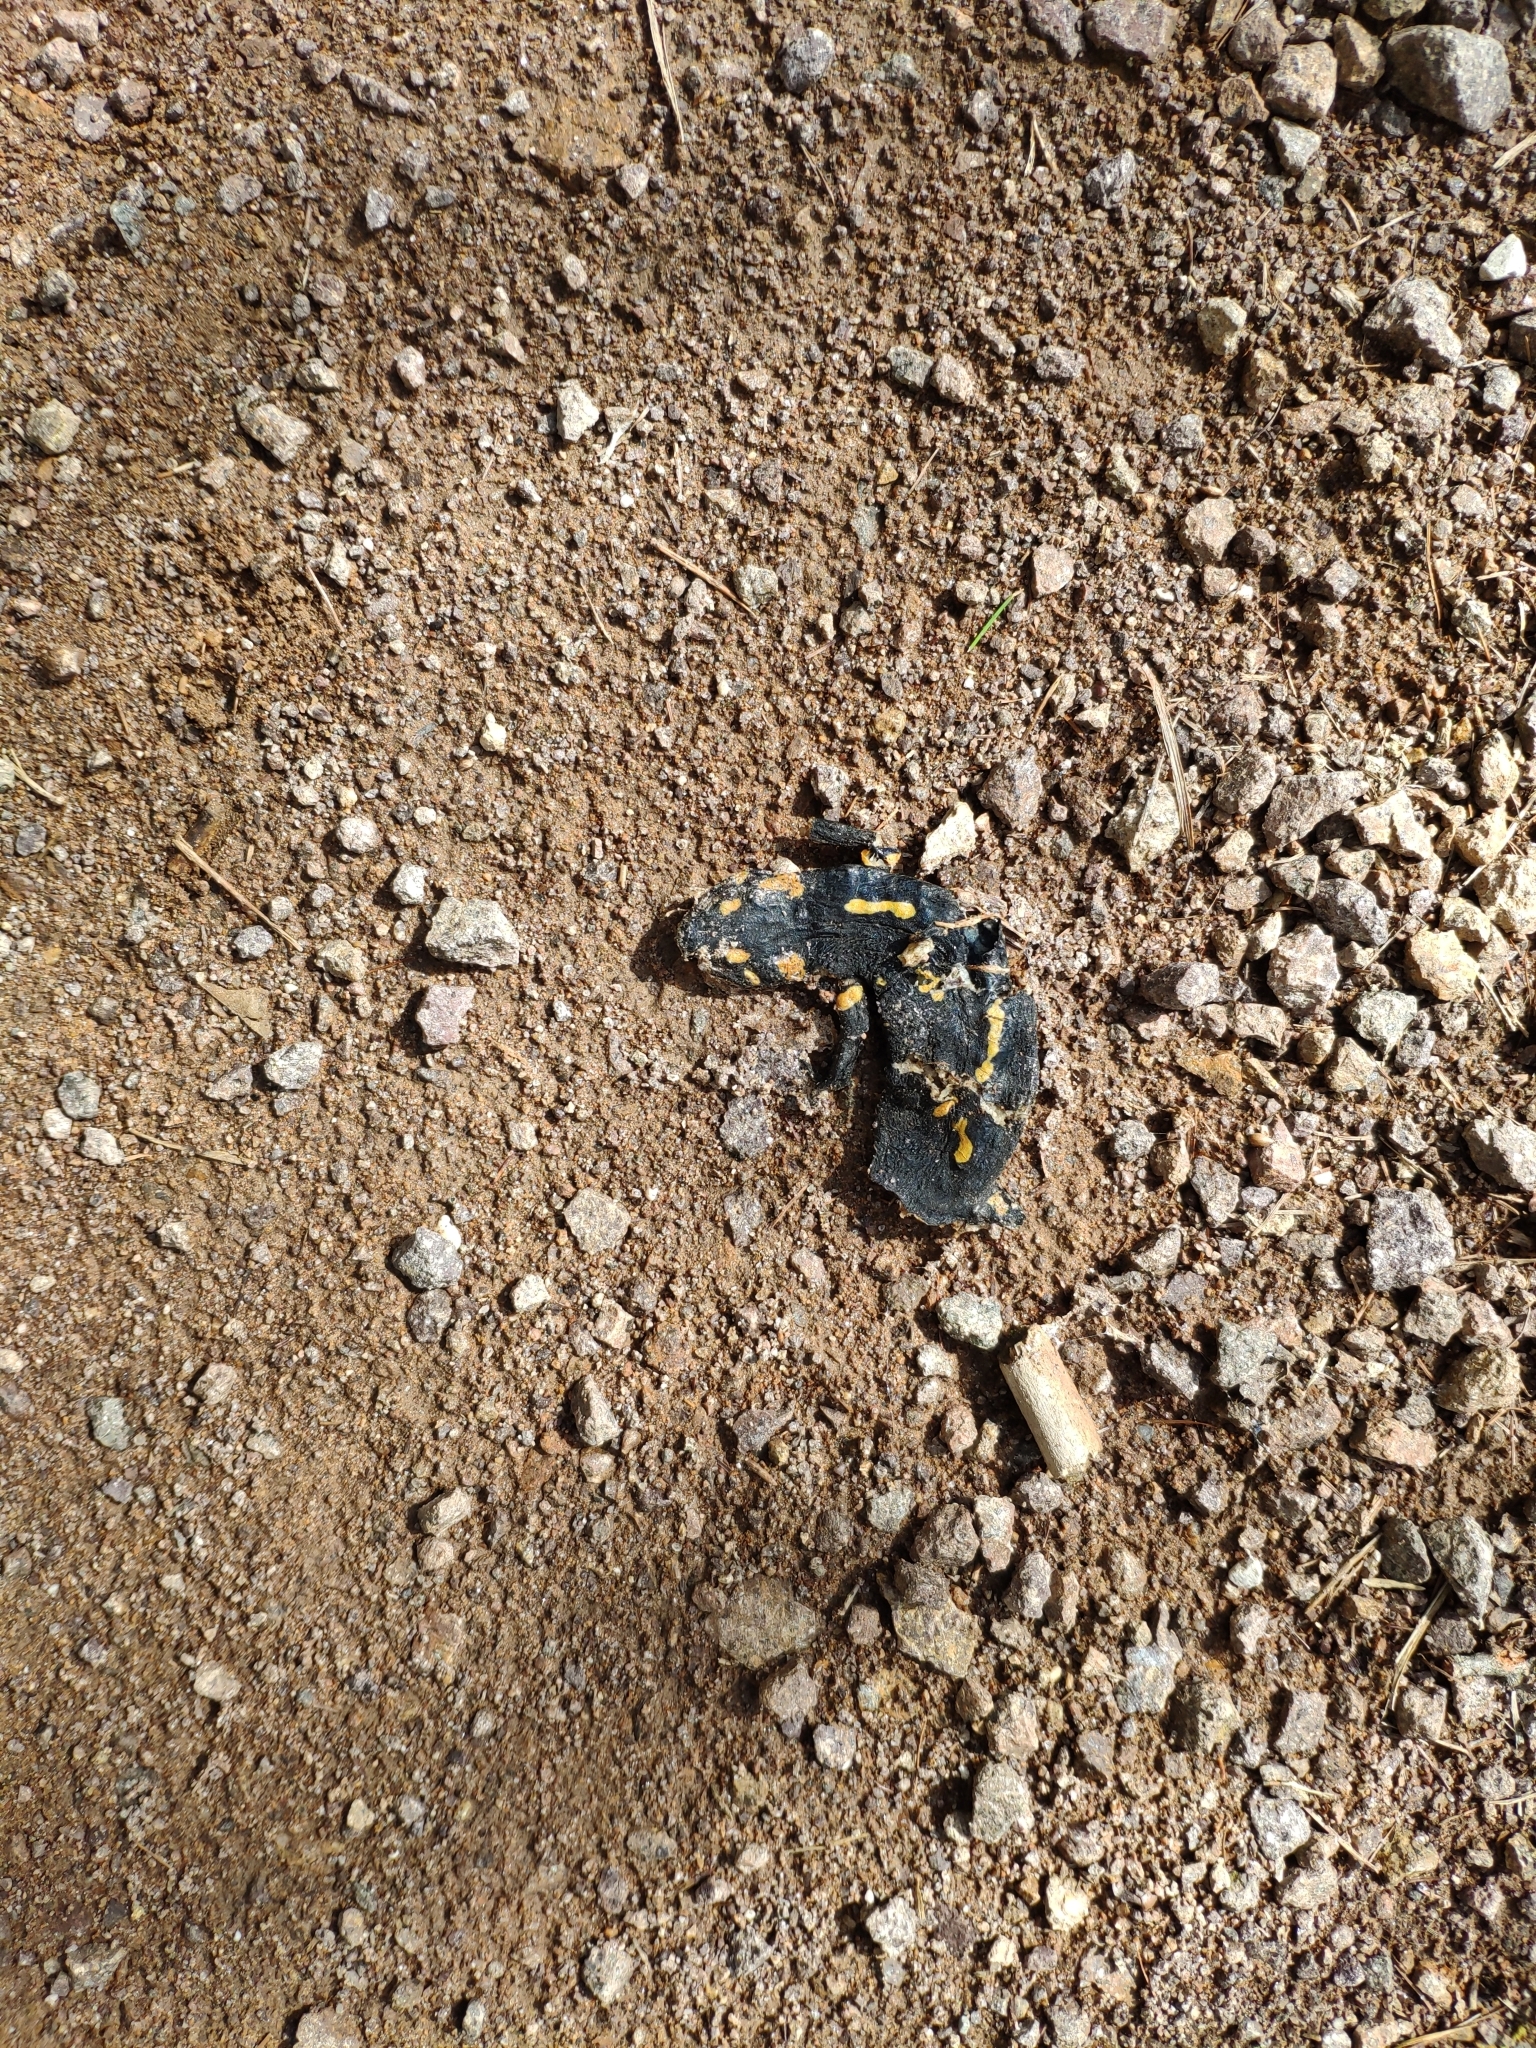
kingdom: Animalia
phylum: Chordata
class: Amphibia
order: Caudata
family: Salamandridae
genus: Salamandra
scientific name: Salamandra salamandra
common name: Fire salamander
